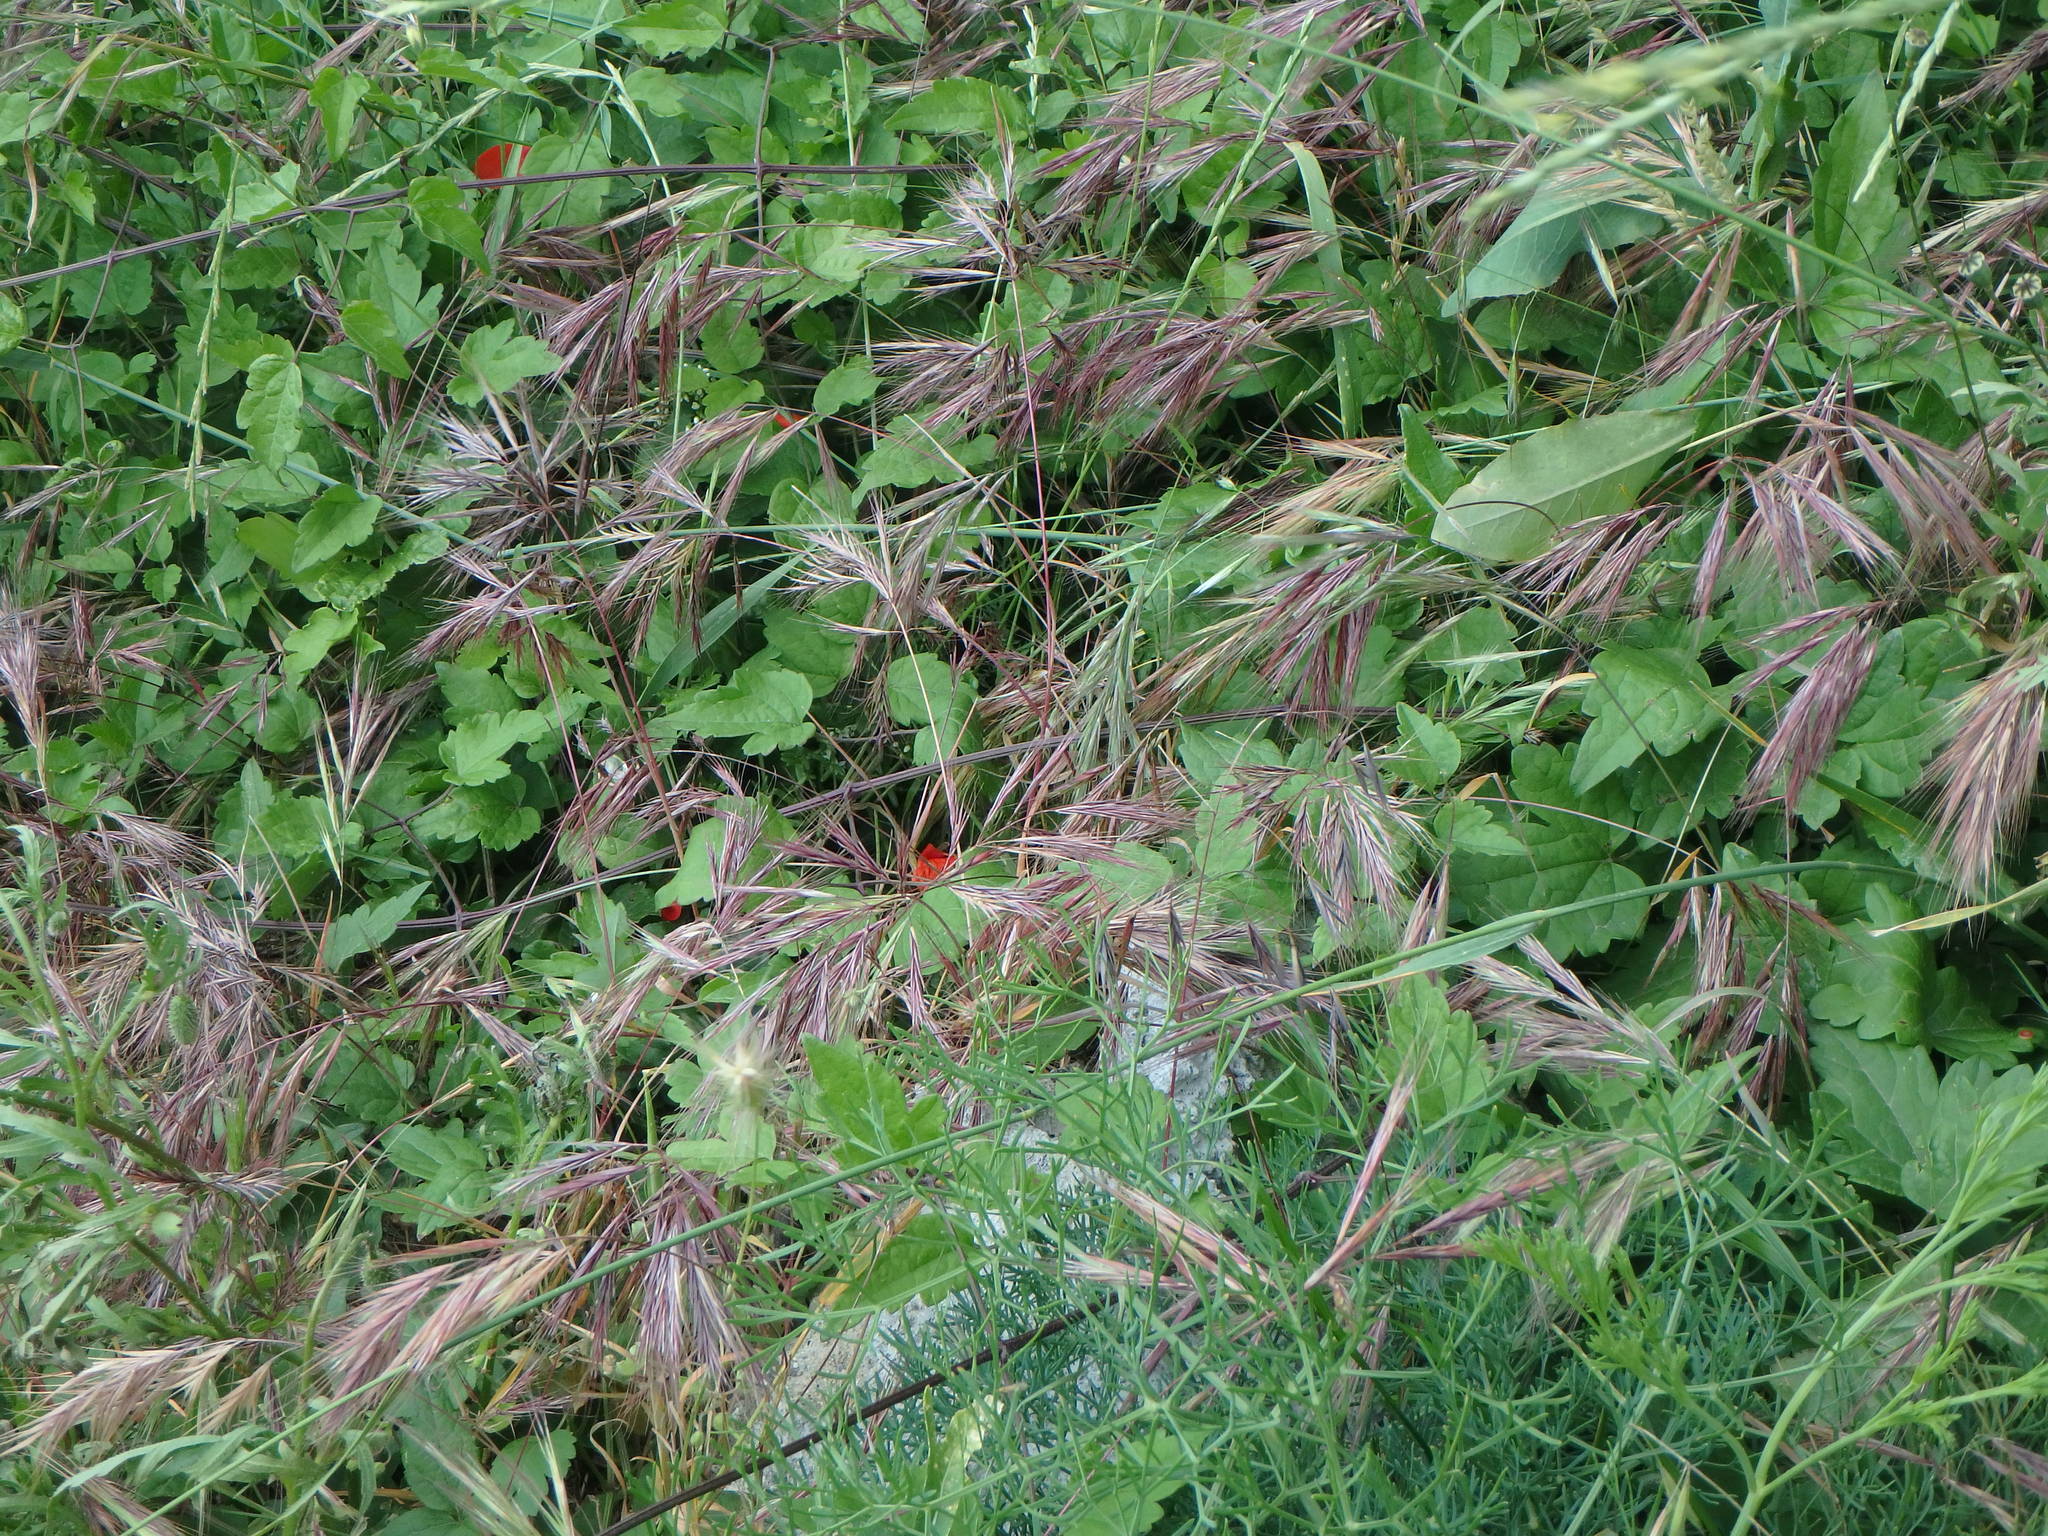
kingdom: Plantae
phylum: Tracheophyta
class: Liliopsida
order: Poales
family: Poaceae
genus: Bromus
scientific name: Bromus madritensis
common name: Compact brome
